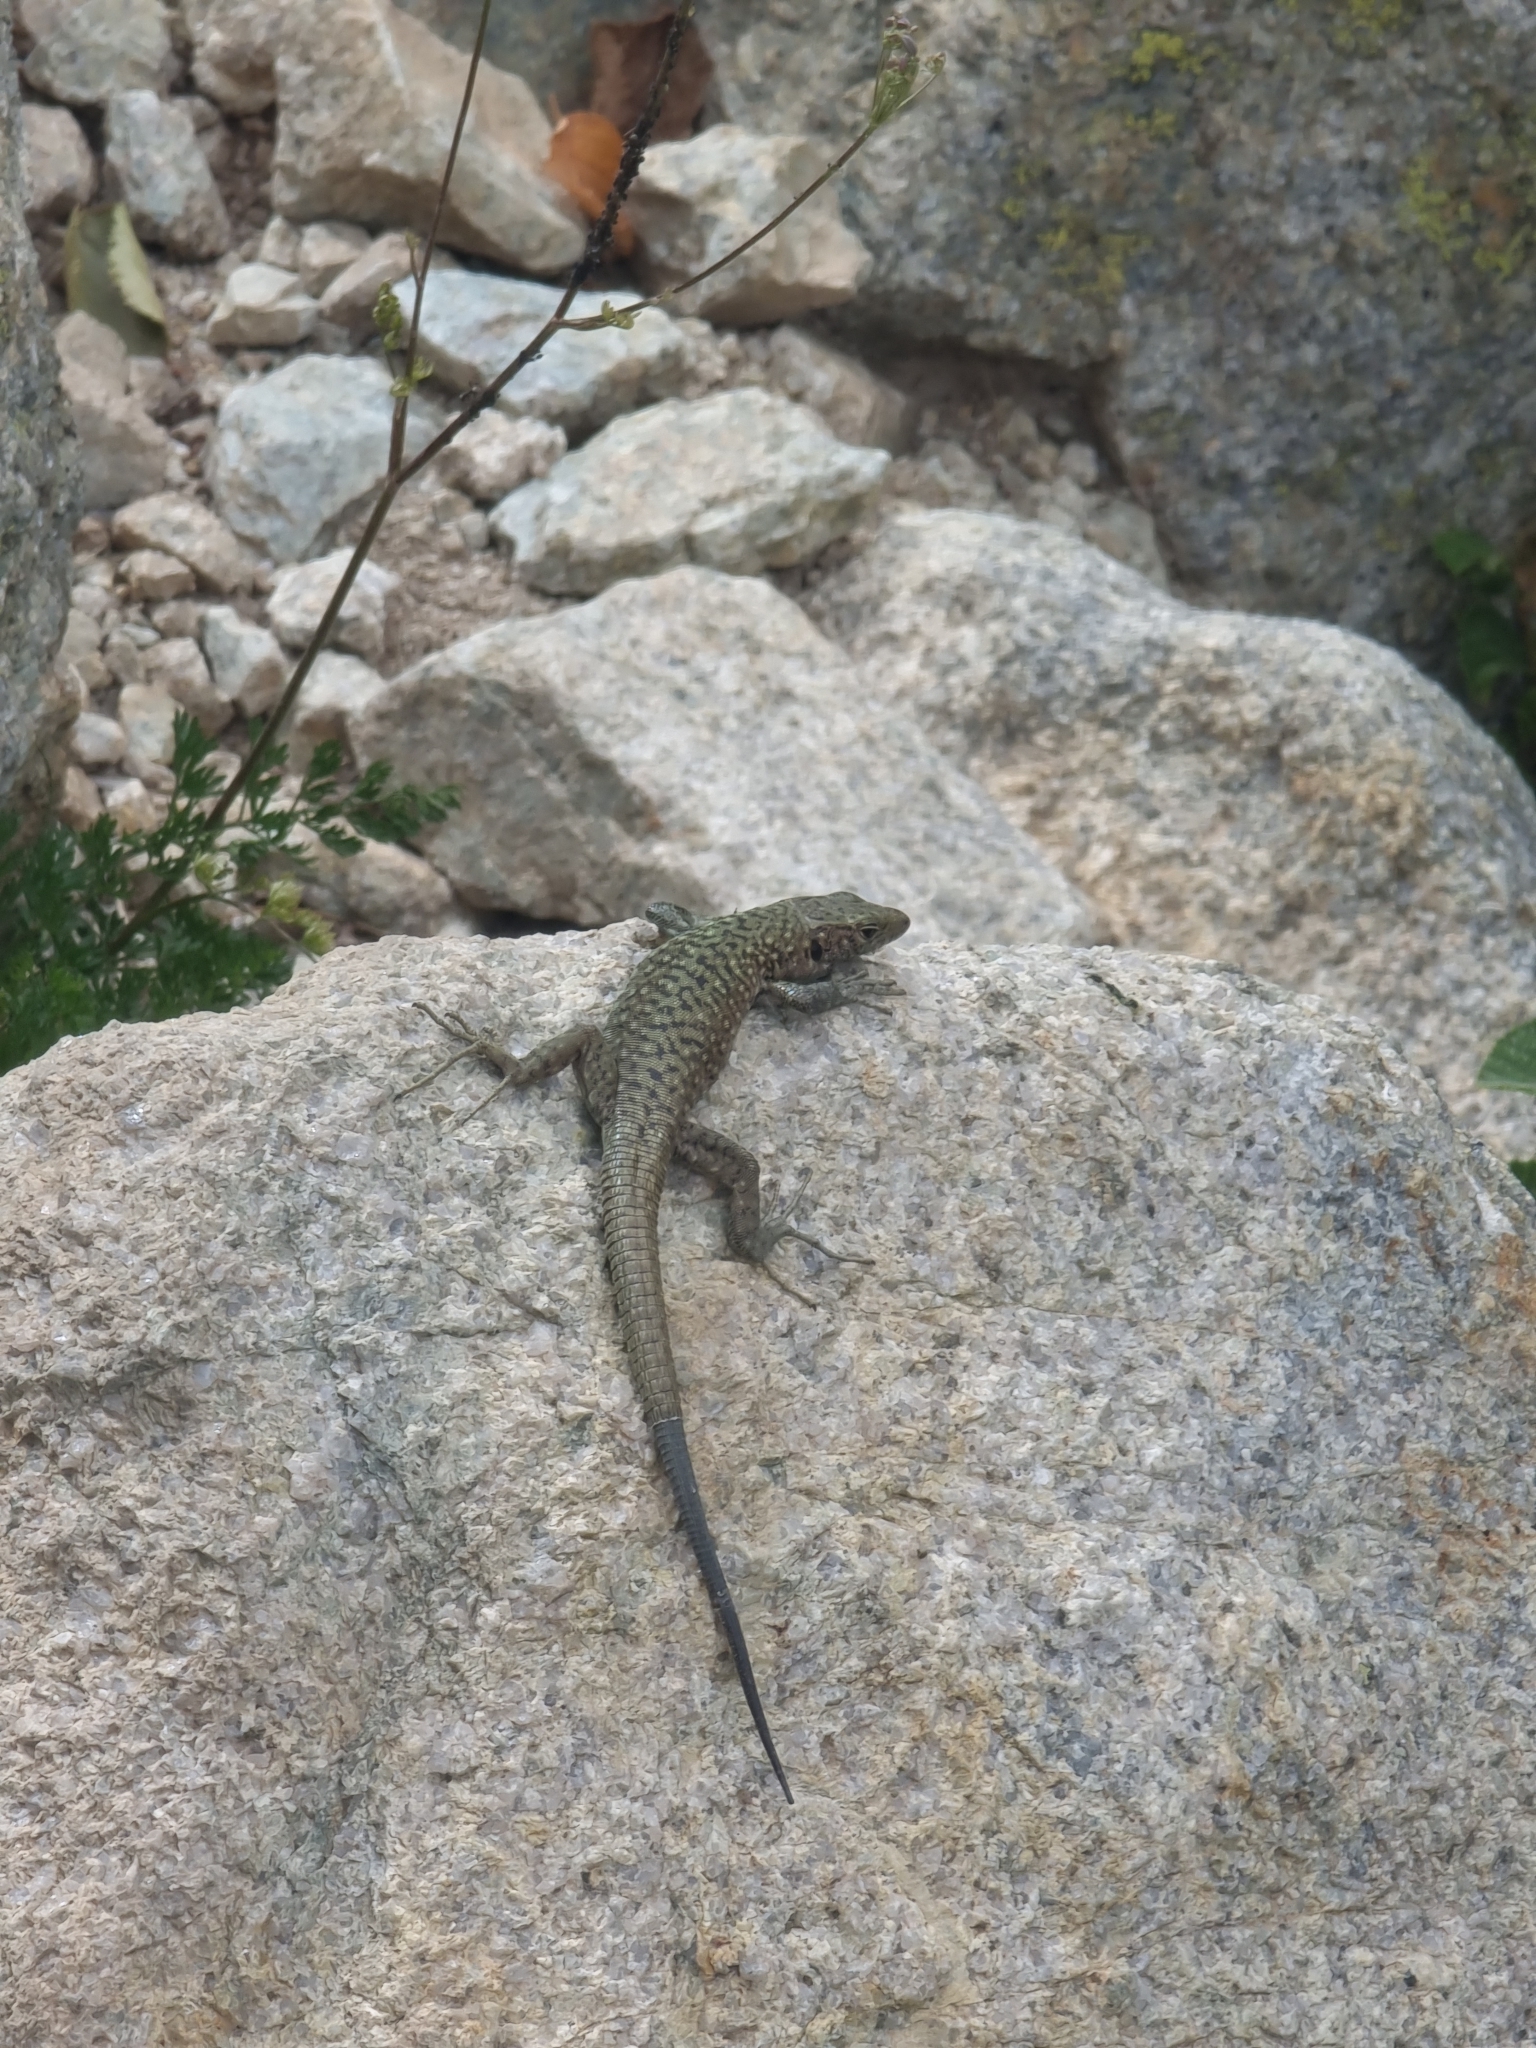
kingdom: Animalia
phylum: Chordata
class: Squamata
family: Lacertidae
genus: Archaeolacerta
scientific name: Archaeolacerta bedriagae
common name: Bedriaga's rock lizard
